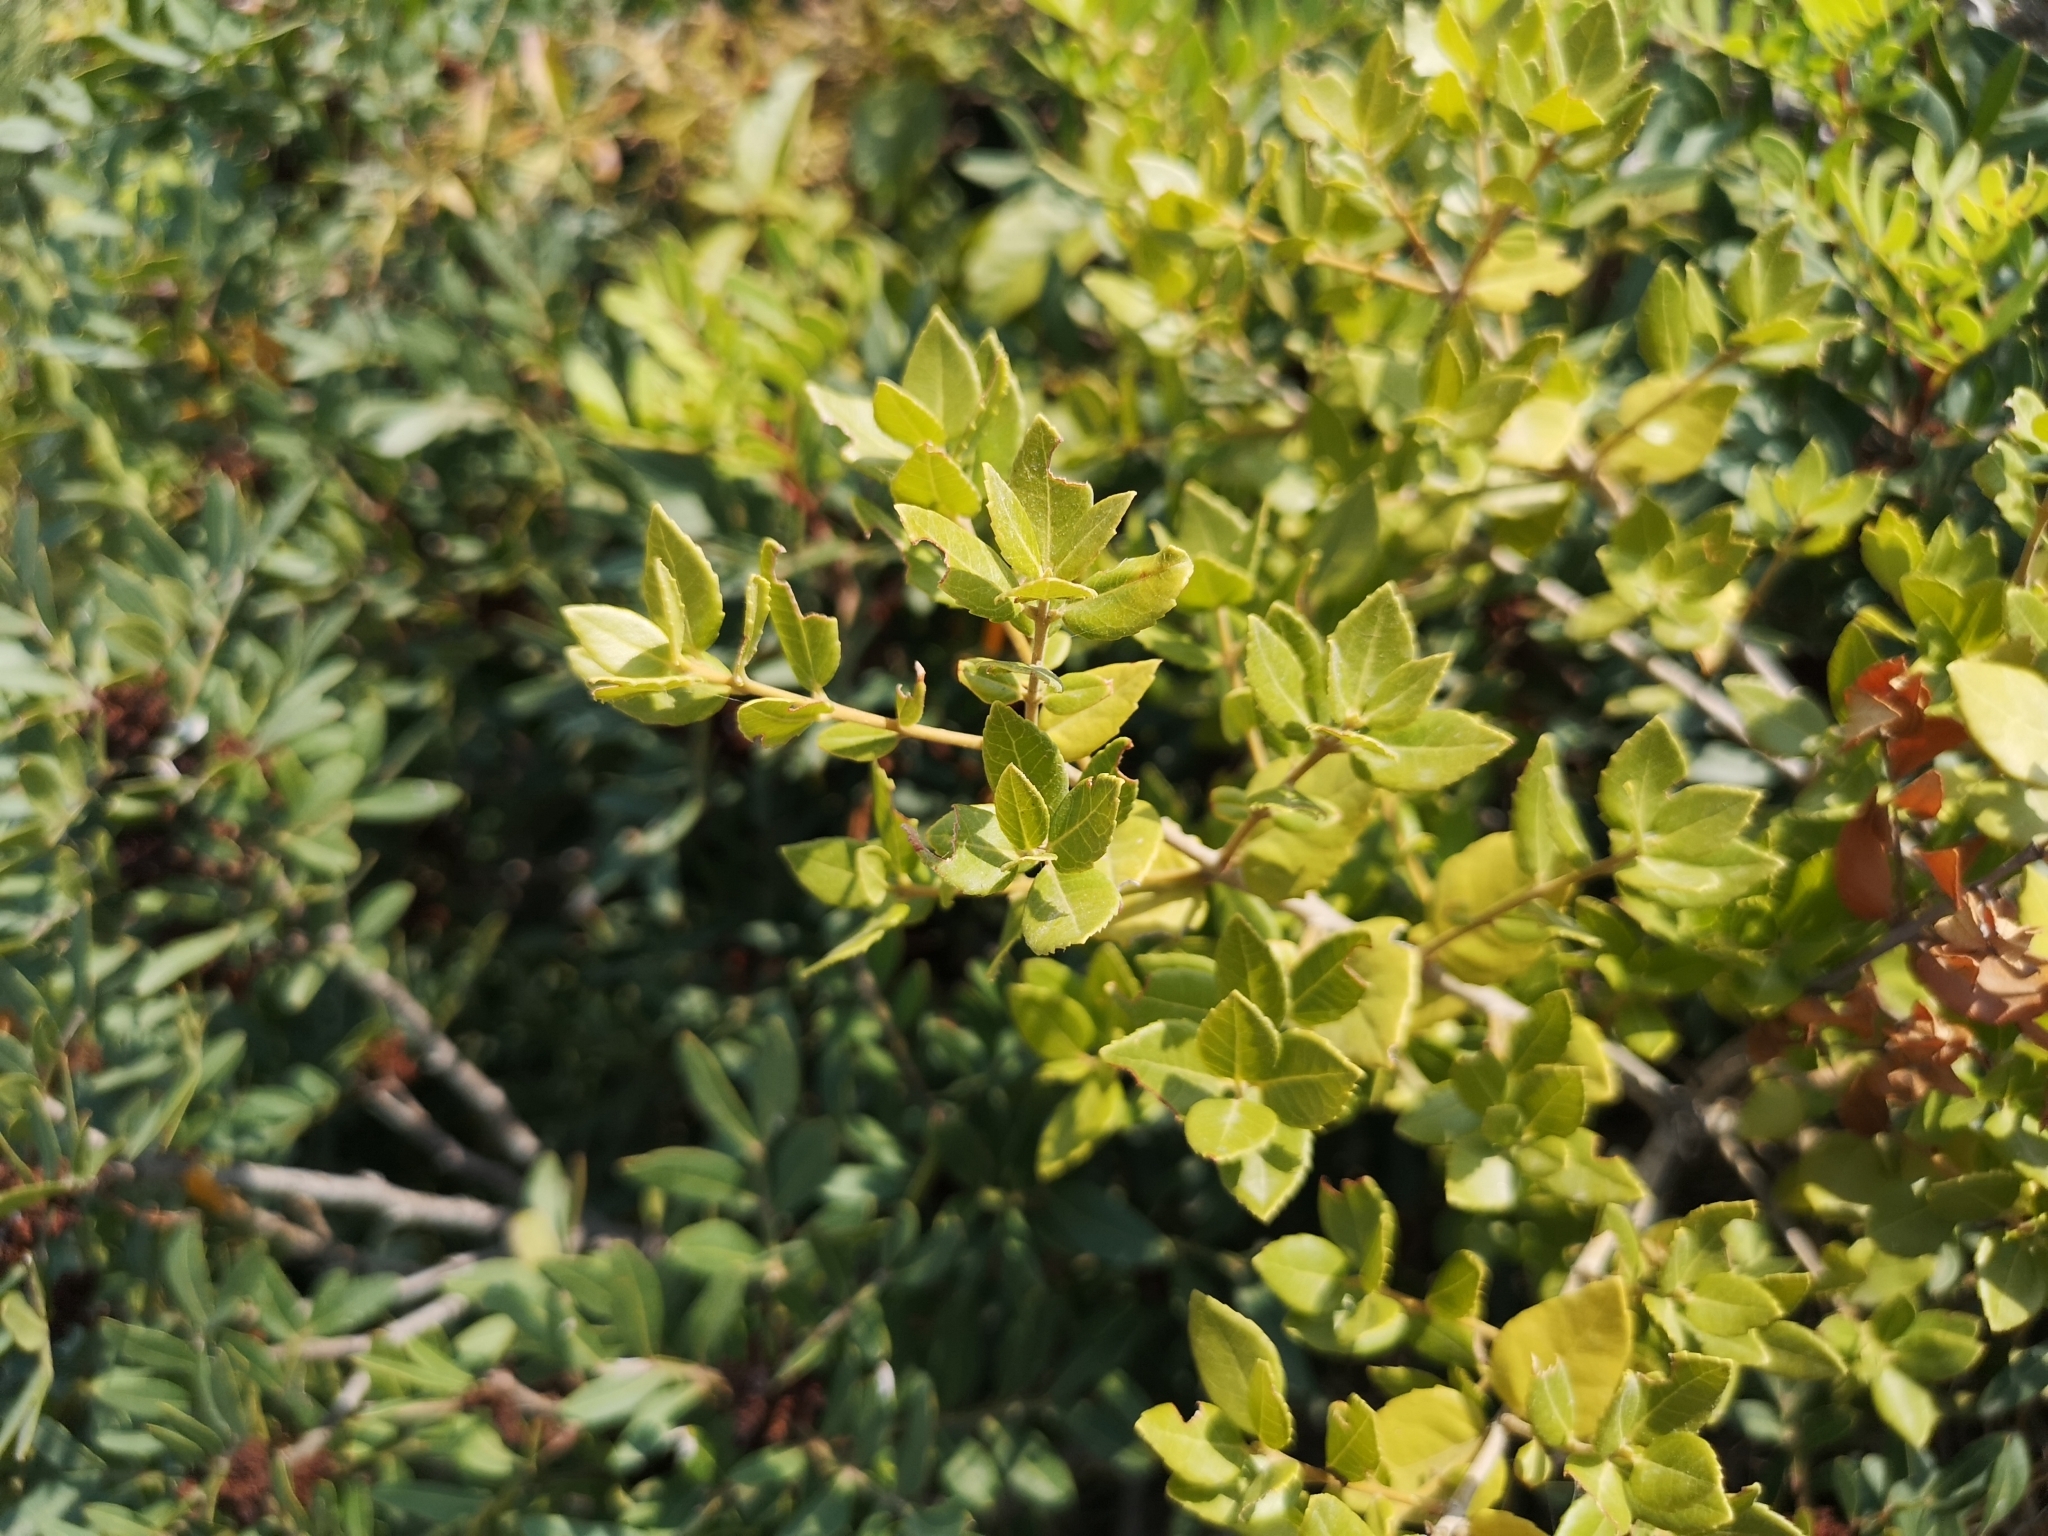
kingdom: Plantae
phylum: Tracheophyta
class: Magnoliopsida
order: Lamiales
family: Oleaceae
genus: Phillyrea
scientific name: Phillyrea latifolia
